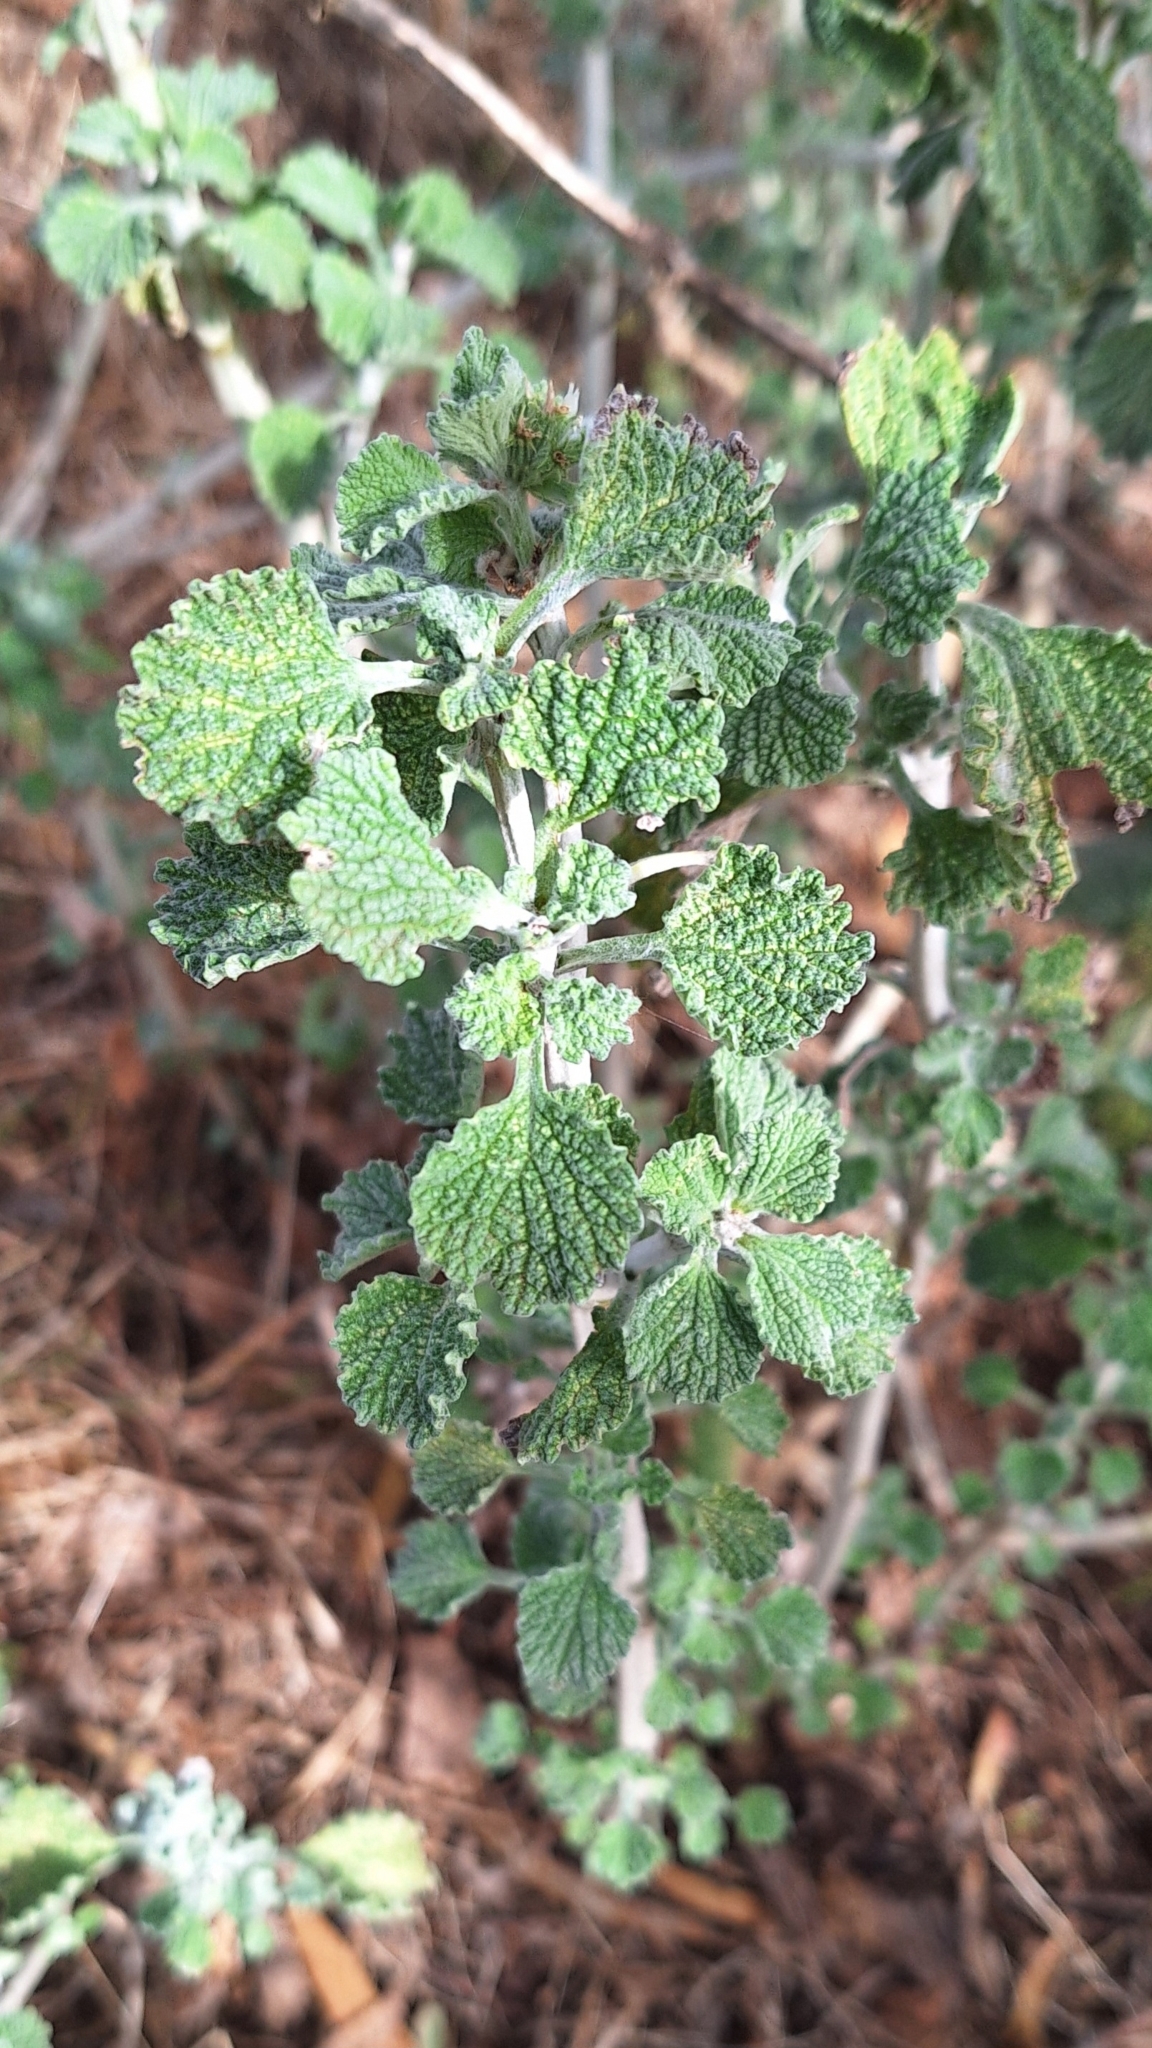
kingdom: Plantae
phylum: Tracheophyta
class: Magnoliopsida
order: Lamiales
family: Lamiaceae
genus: Marrubium
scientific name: Marrubium vulgare
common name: Horehound
